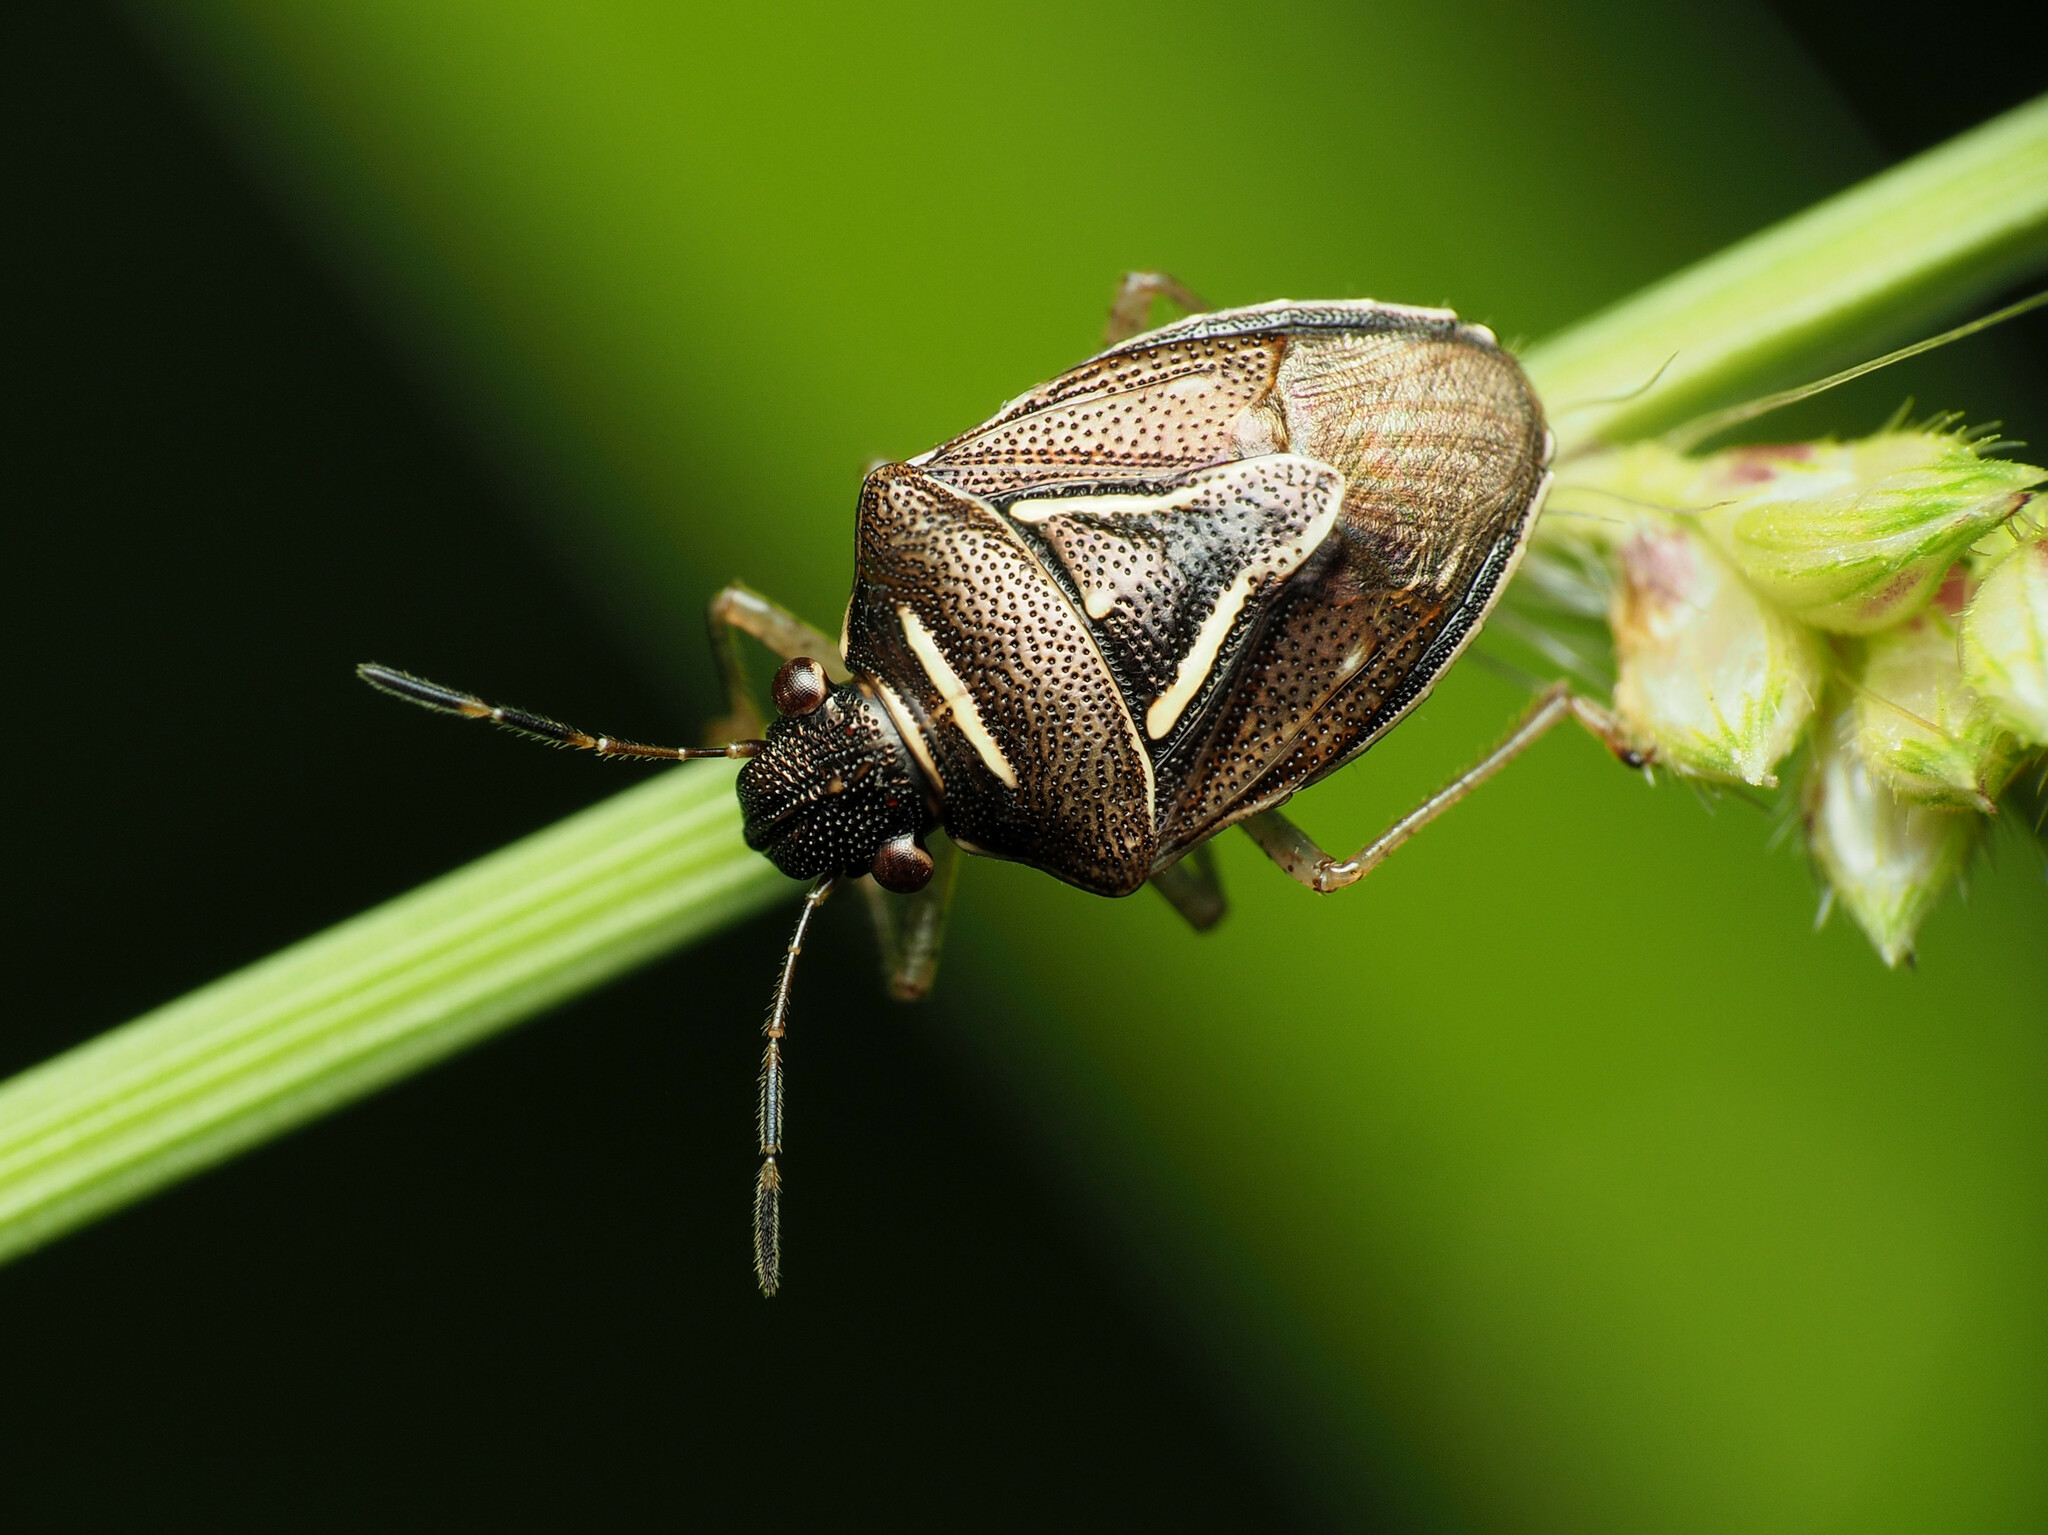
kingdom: Animalia
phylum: Arthropoda
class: Insecta
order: Hemiptera
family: Pentatomidae
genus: Mormidea
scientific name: Mormidea lugens
